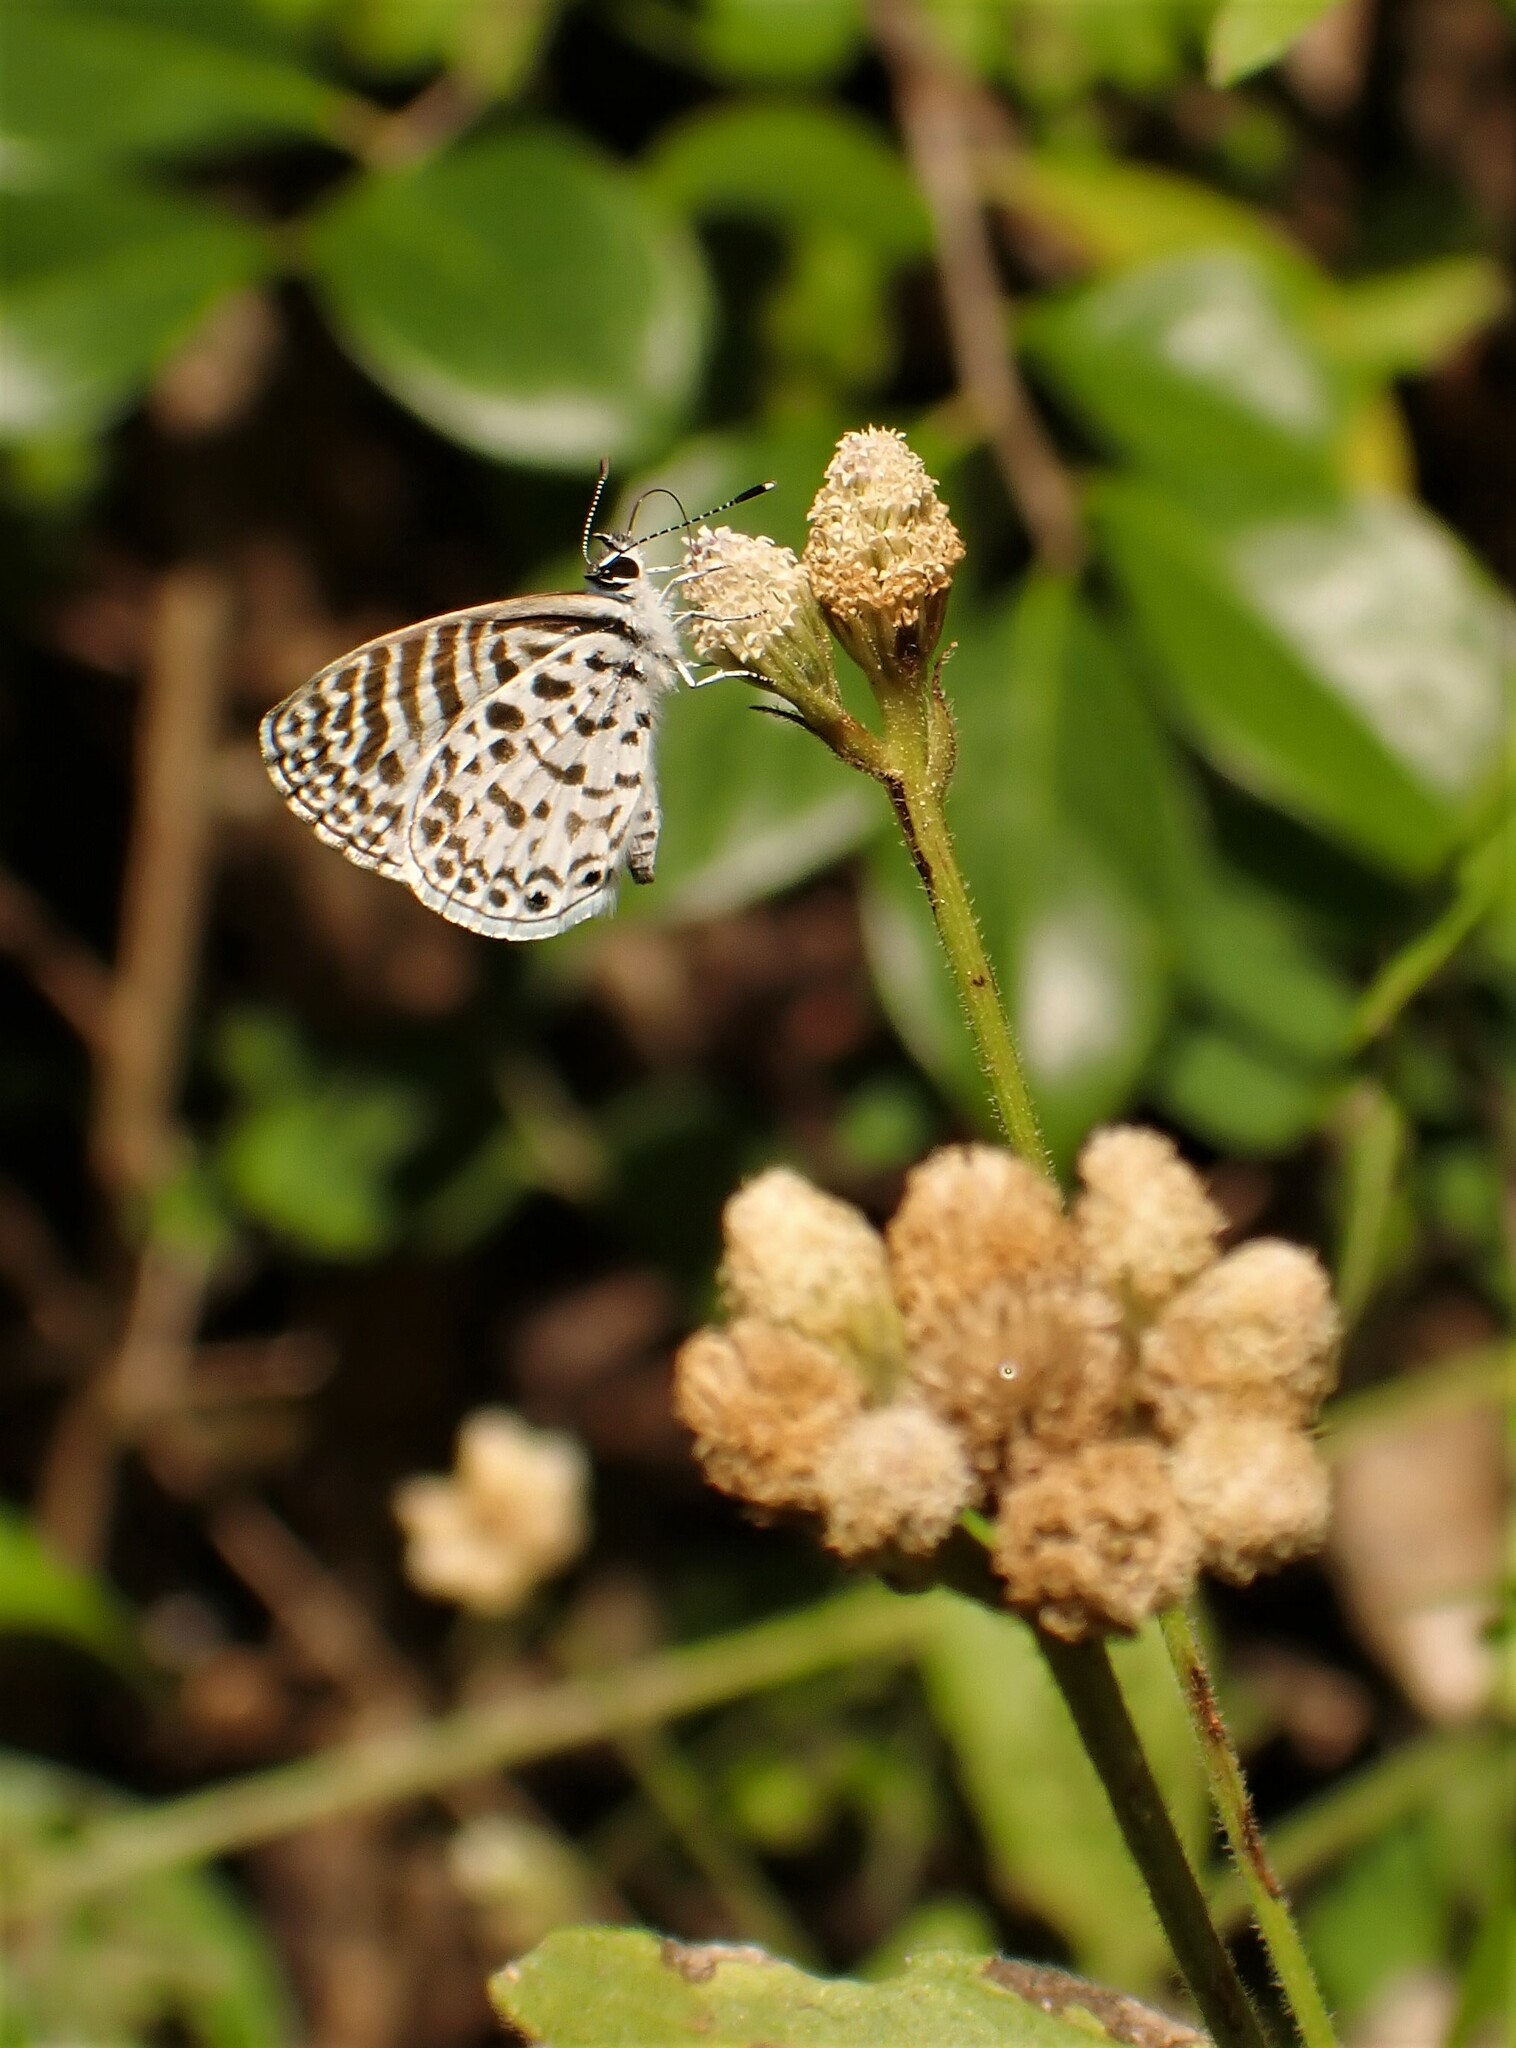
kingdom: Animalia
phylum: Arthropoda
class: Insecta
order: Lepidoptera
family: Lycaenidae
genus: Leptotes
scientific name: Leptotes cassius
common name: Cassius blue
